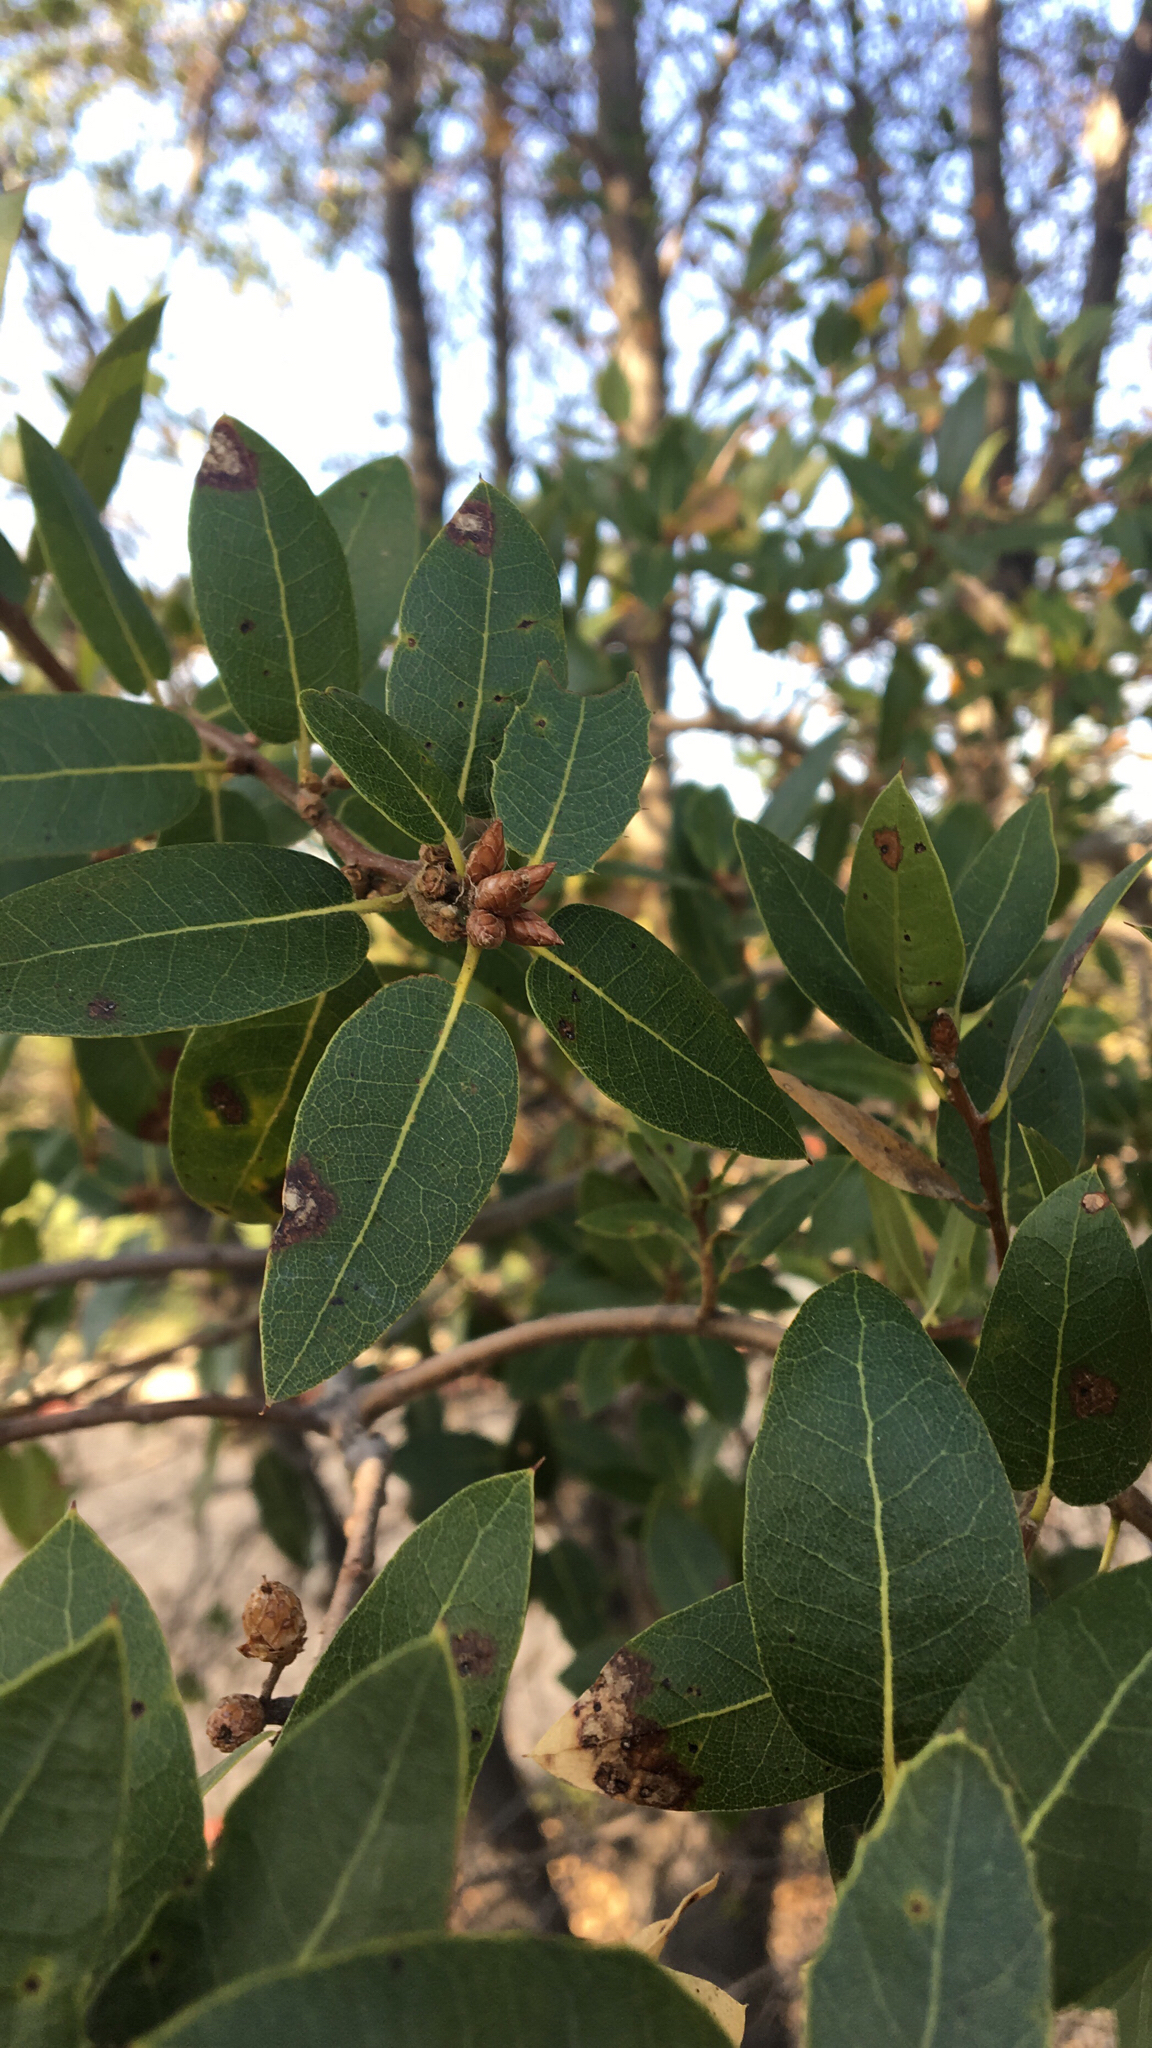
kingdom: Plantae
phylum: Tracheophyta
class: Magnoliopsida
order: Fagales
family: Fagaceae
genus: Quercus
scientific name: Quercus wislizeni
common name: Interior live oak
